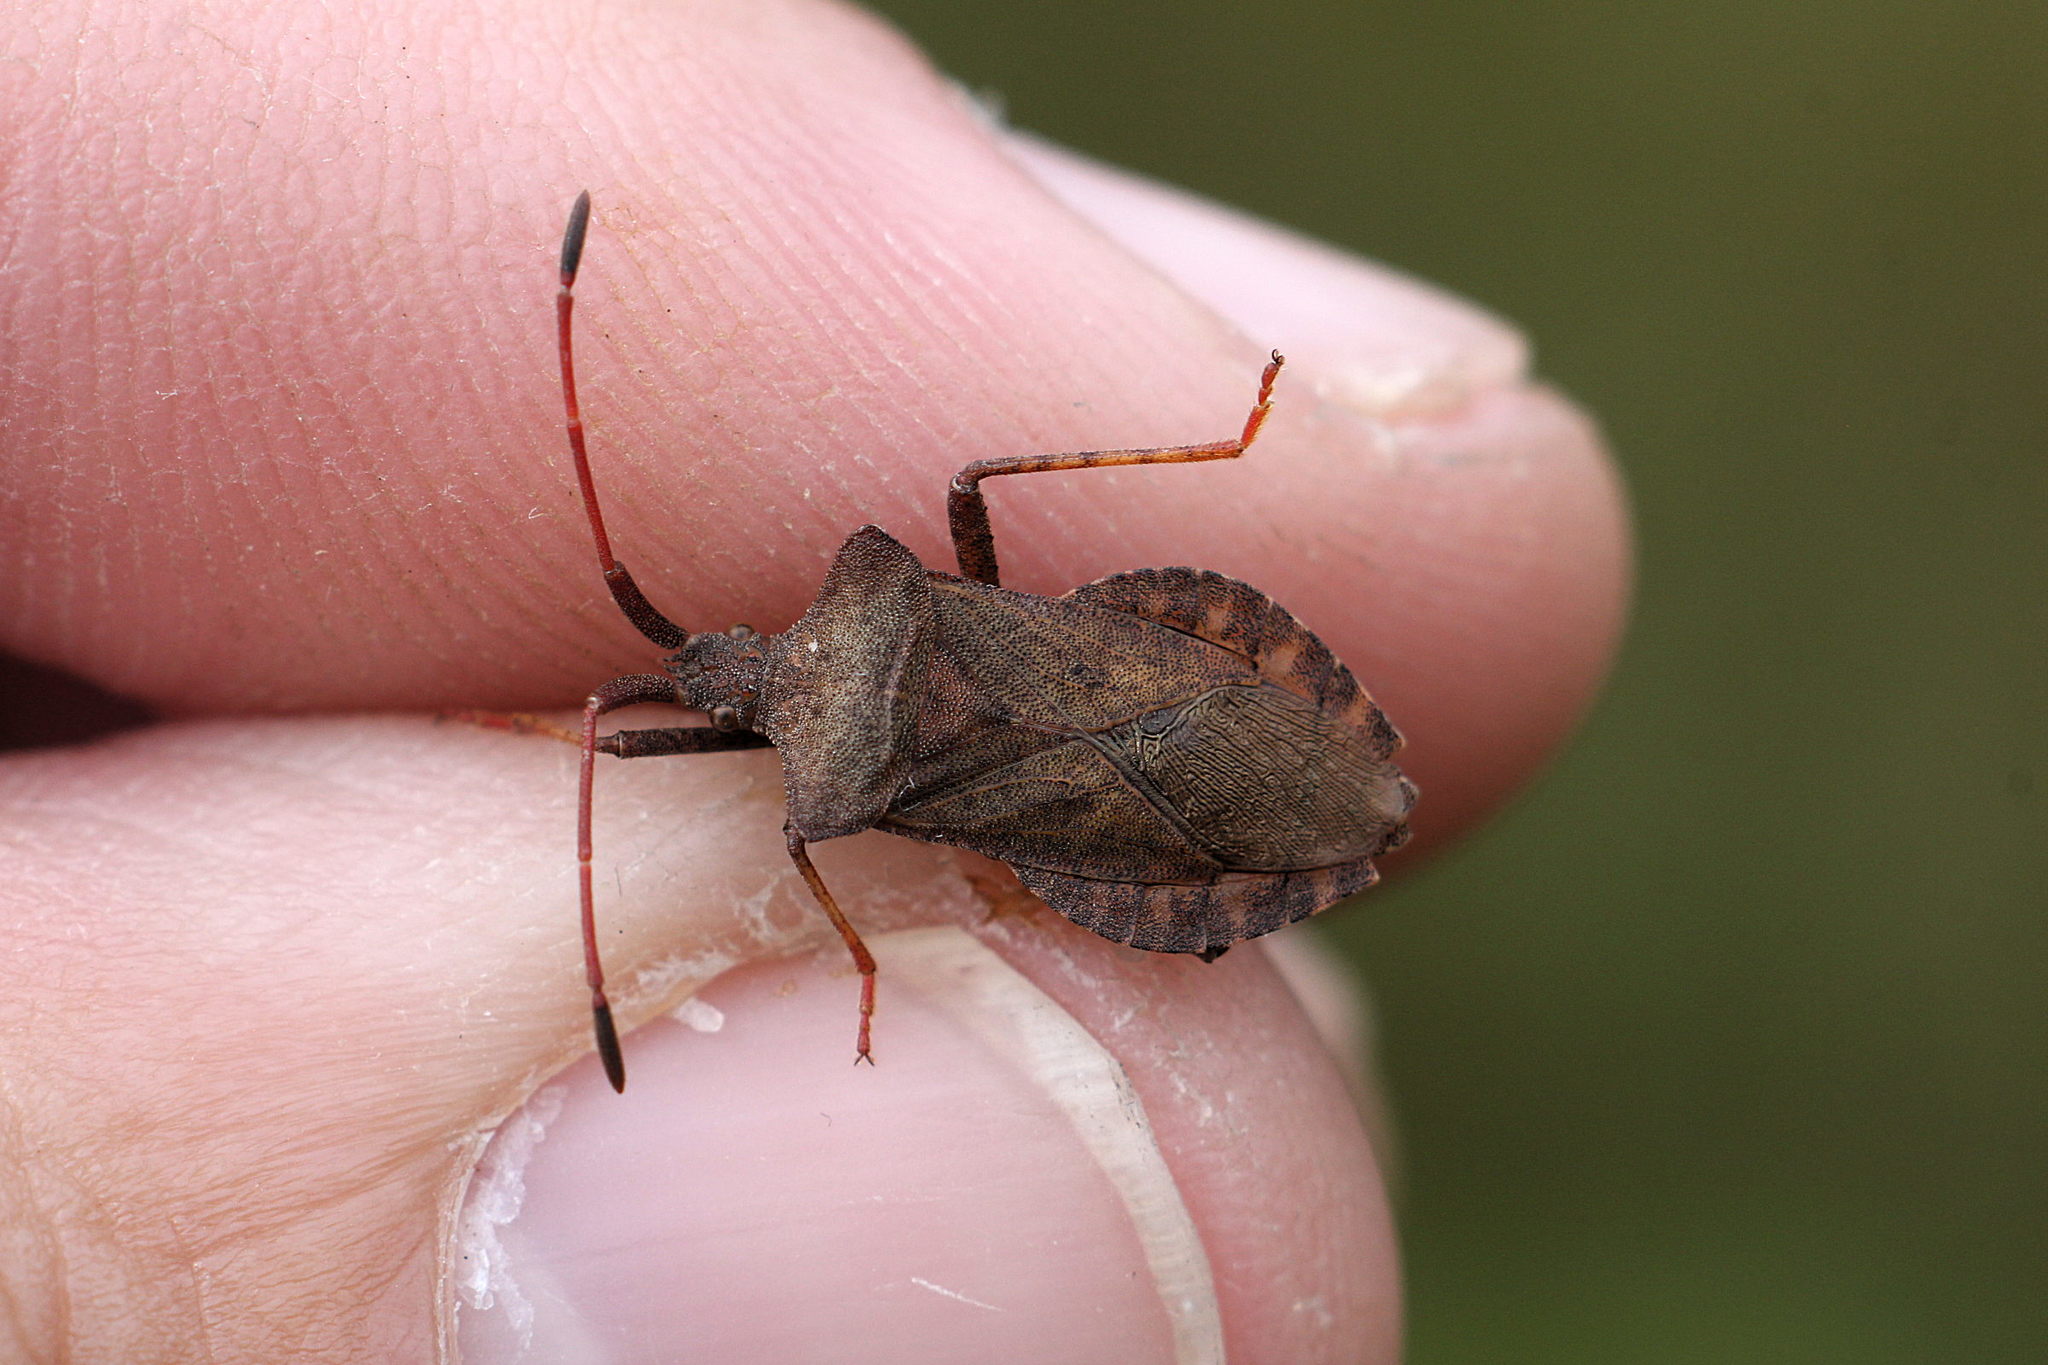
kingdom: Animalia
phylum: Arthropoda
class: Insecta
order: Hemiptera
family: Coreidae
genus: Coreus
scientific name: Coreus marginatus
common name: Dock bug
